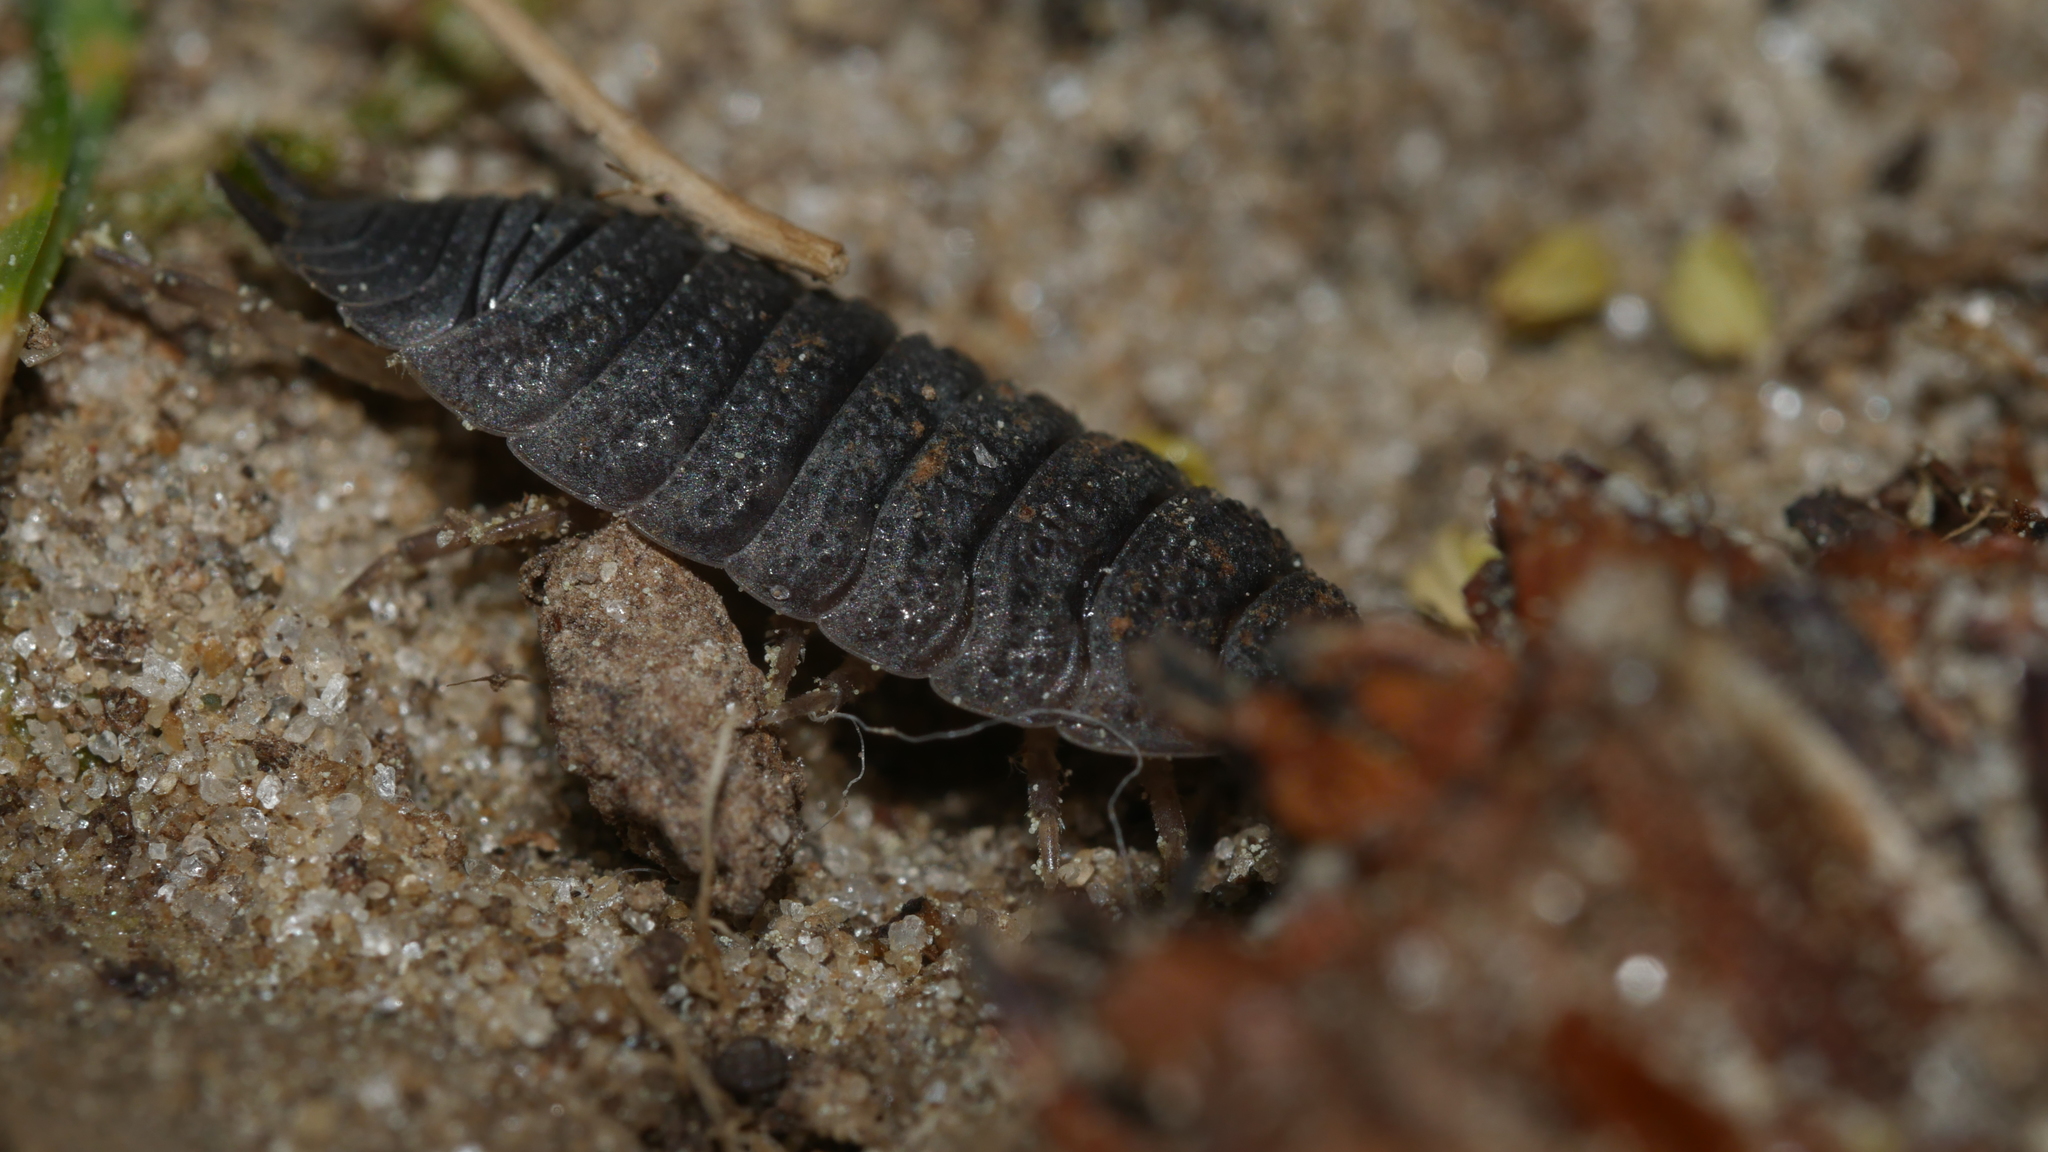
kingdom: Animalia
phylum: Arthropoda
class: Malacostraca
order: Isopoda
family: Porcellionidae
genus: Porcellio
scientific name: Porcellio scaber
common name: Common rough woodlouse
